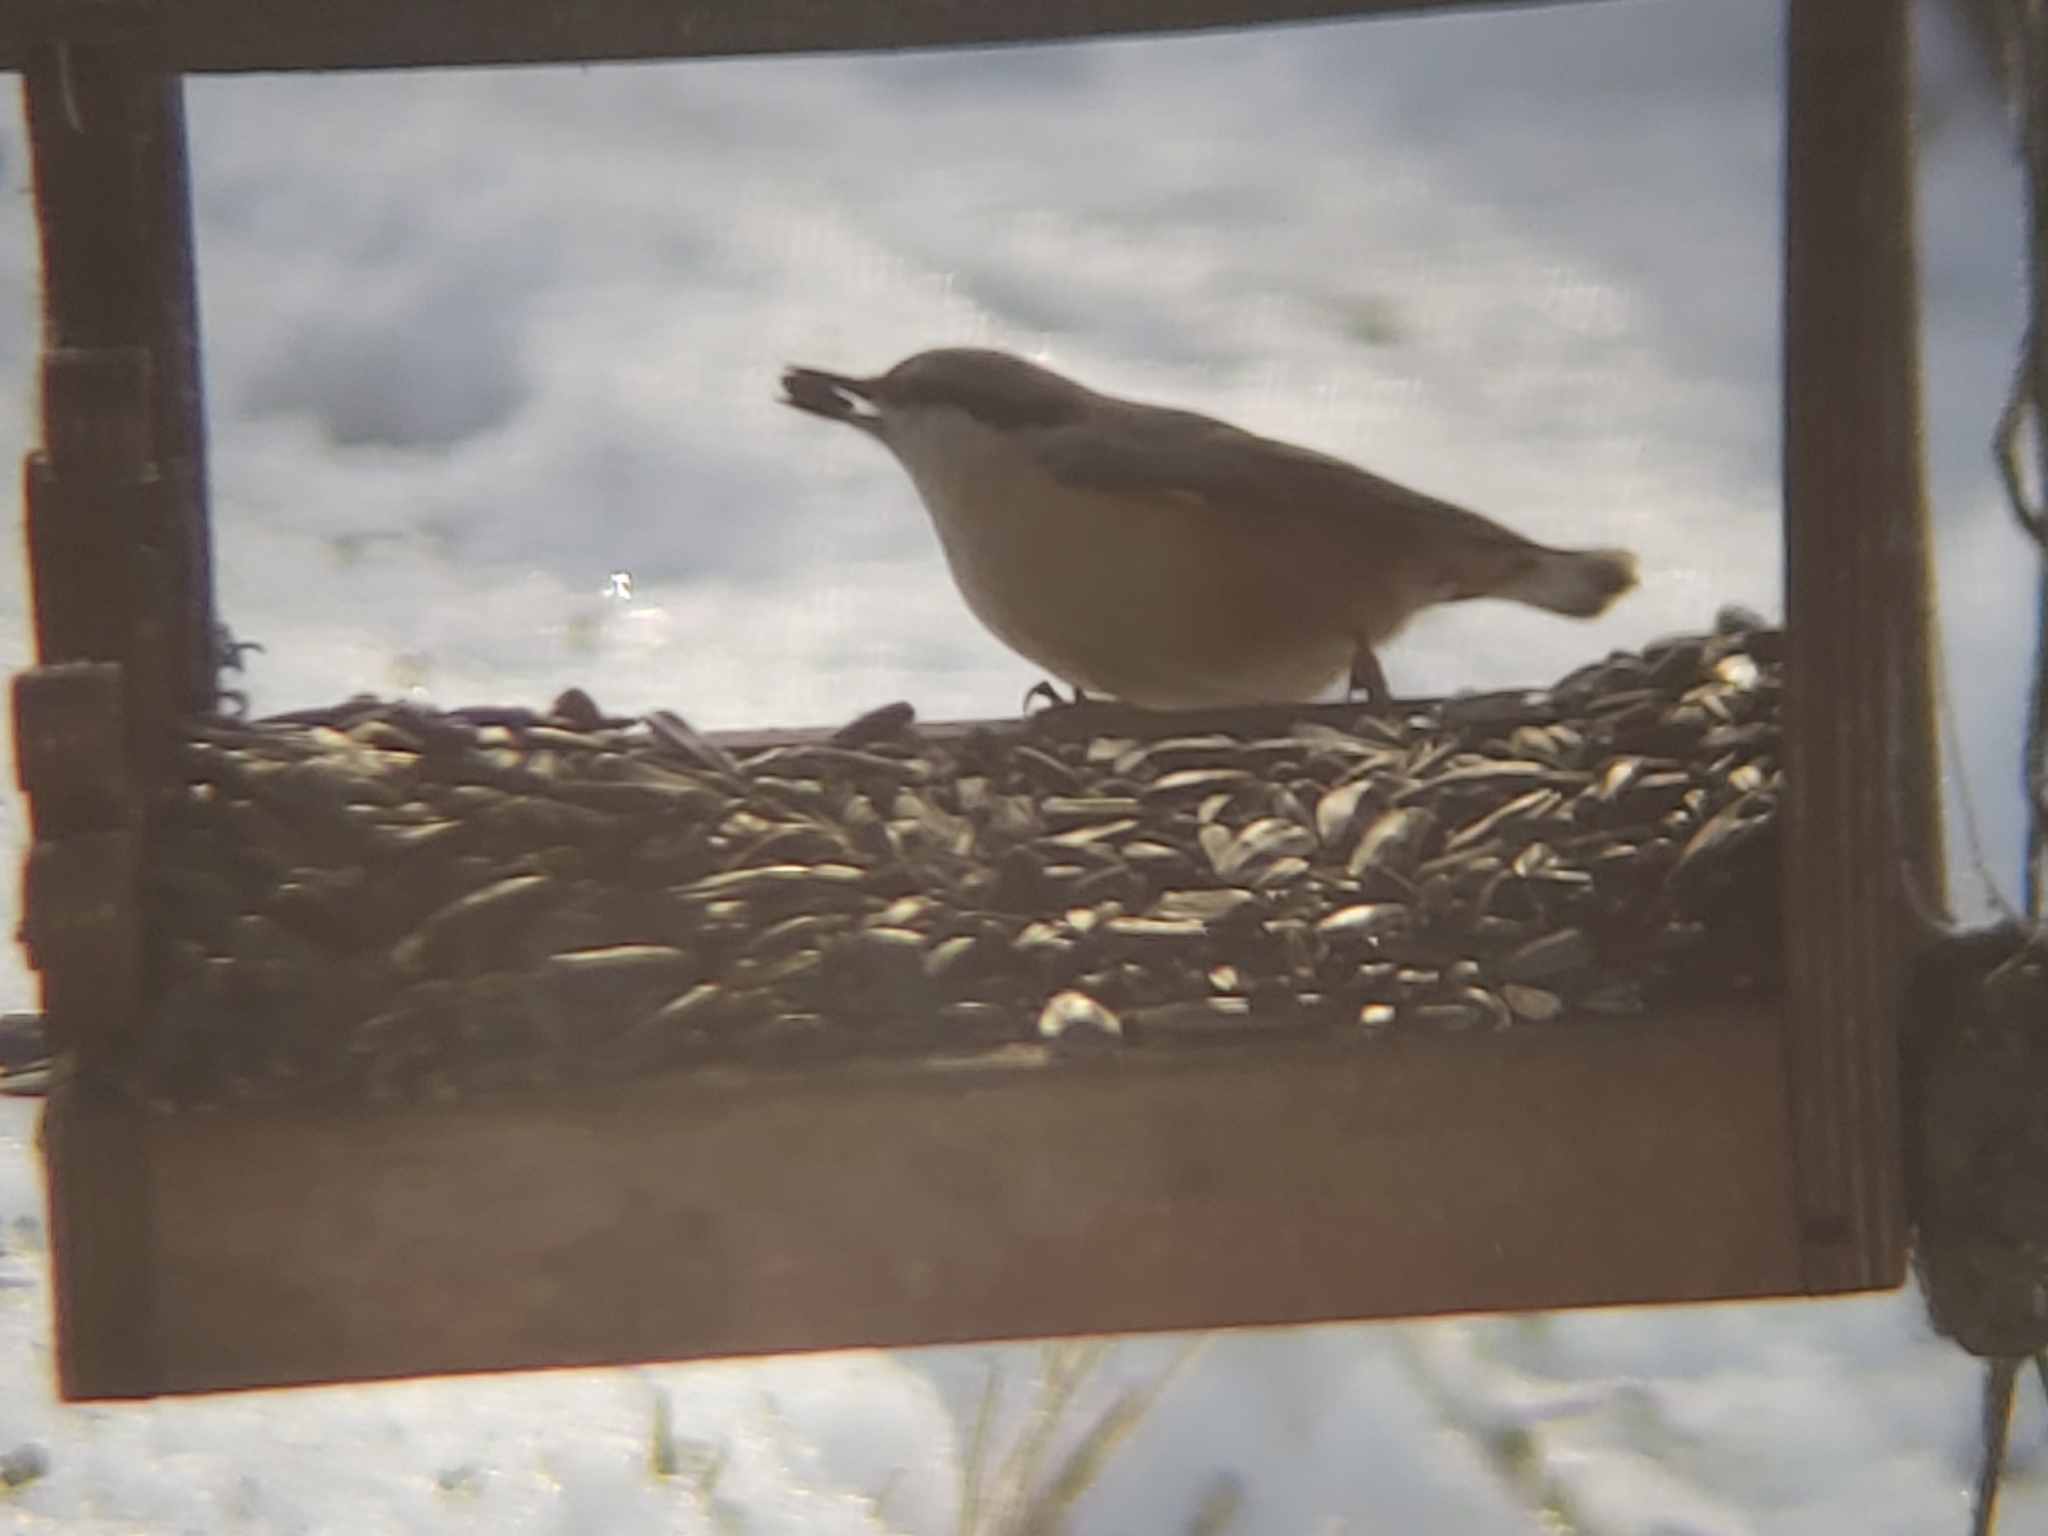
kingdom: Animalia
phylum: Chordata
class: Aves
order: Passeriformes
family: Sittidae
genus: Sitta
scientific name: Sitta europaea
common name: Eurasian nuthatch
